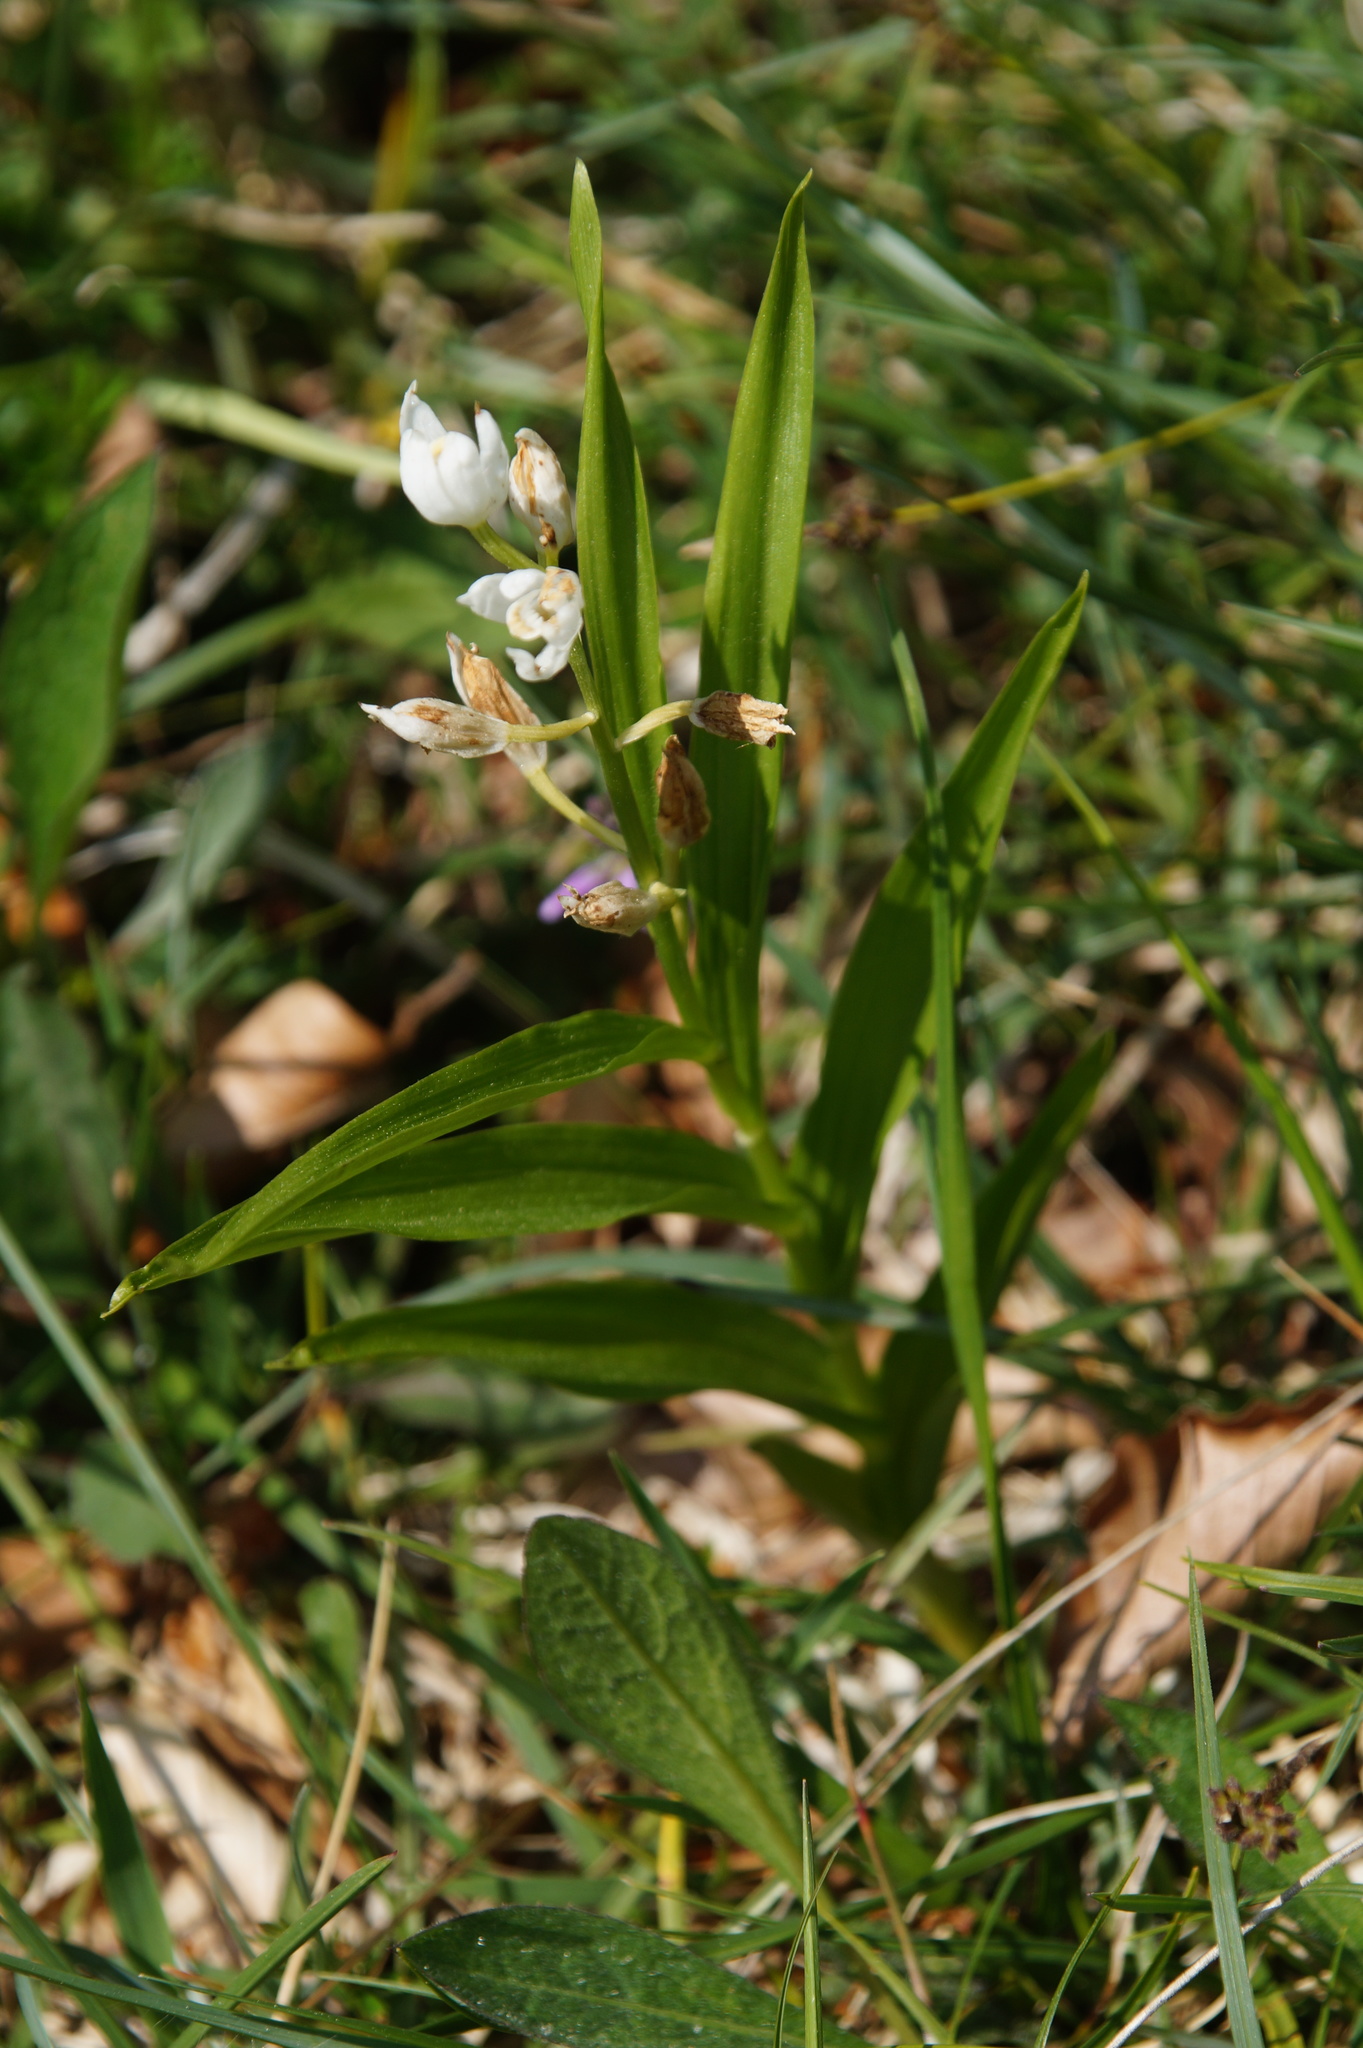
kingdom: Plantae
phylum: Tracheophyta
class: Liliopsida
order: Asparagales
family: Orchidaceae
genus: Cephalanthera
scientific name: Cephalanthera longifolia
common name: Narrow-leaved helleborine
